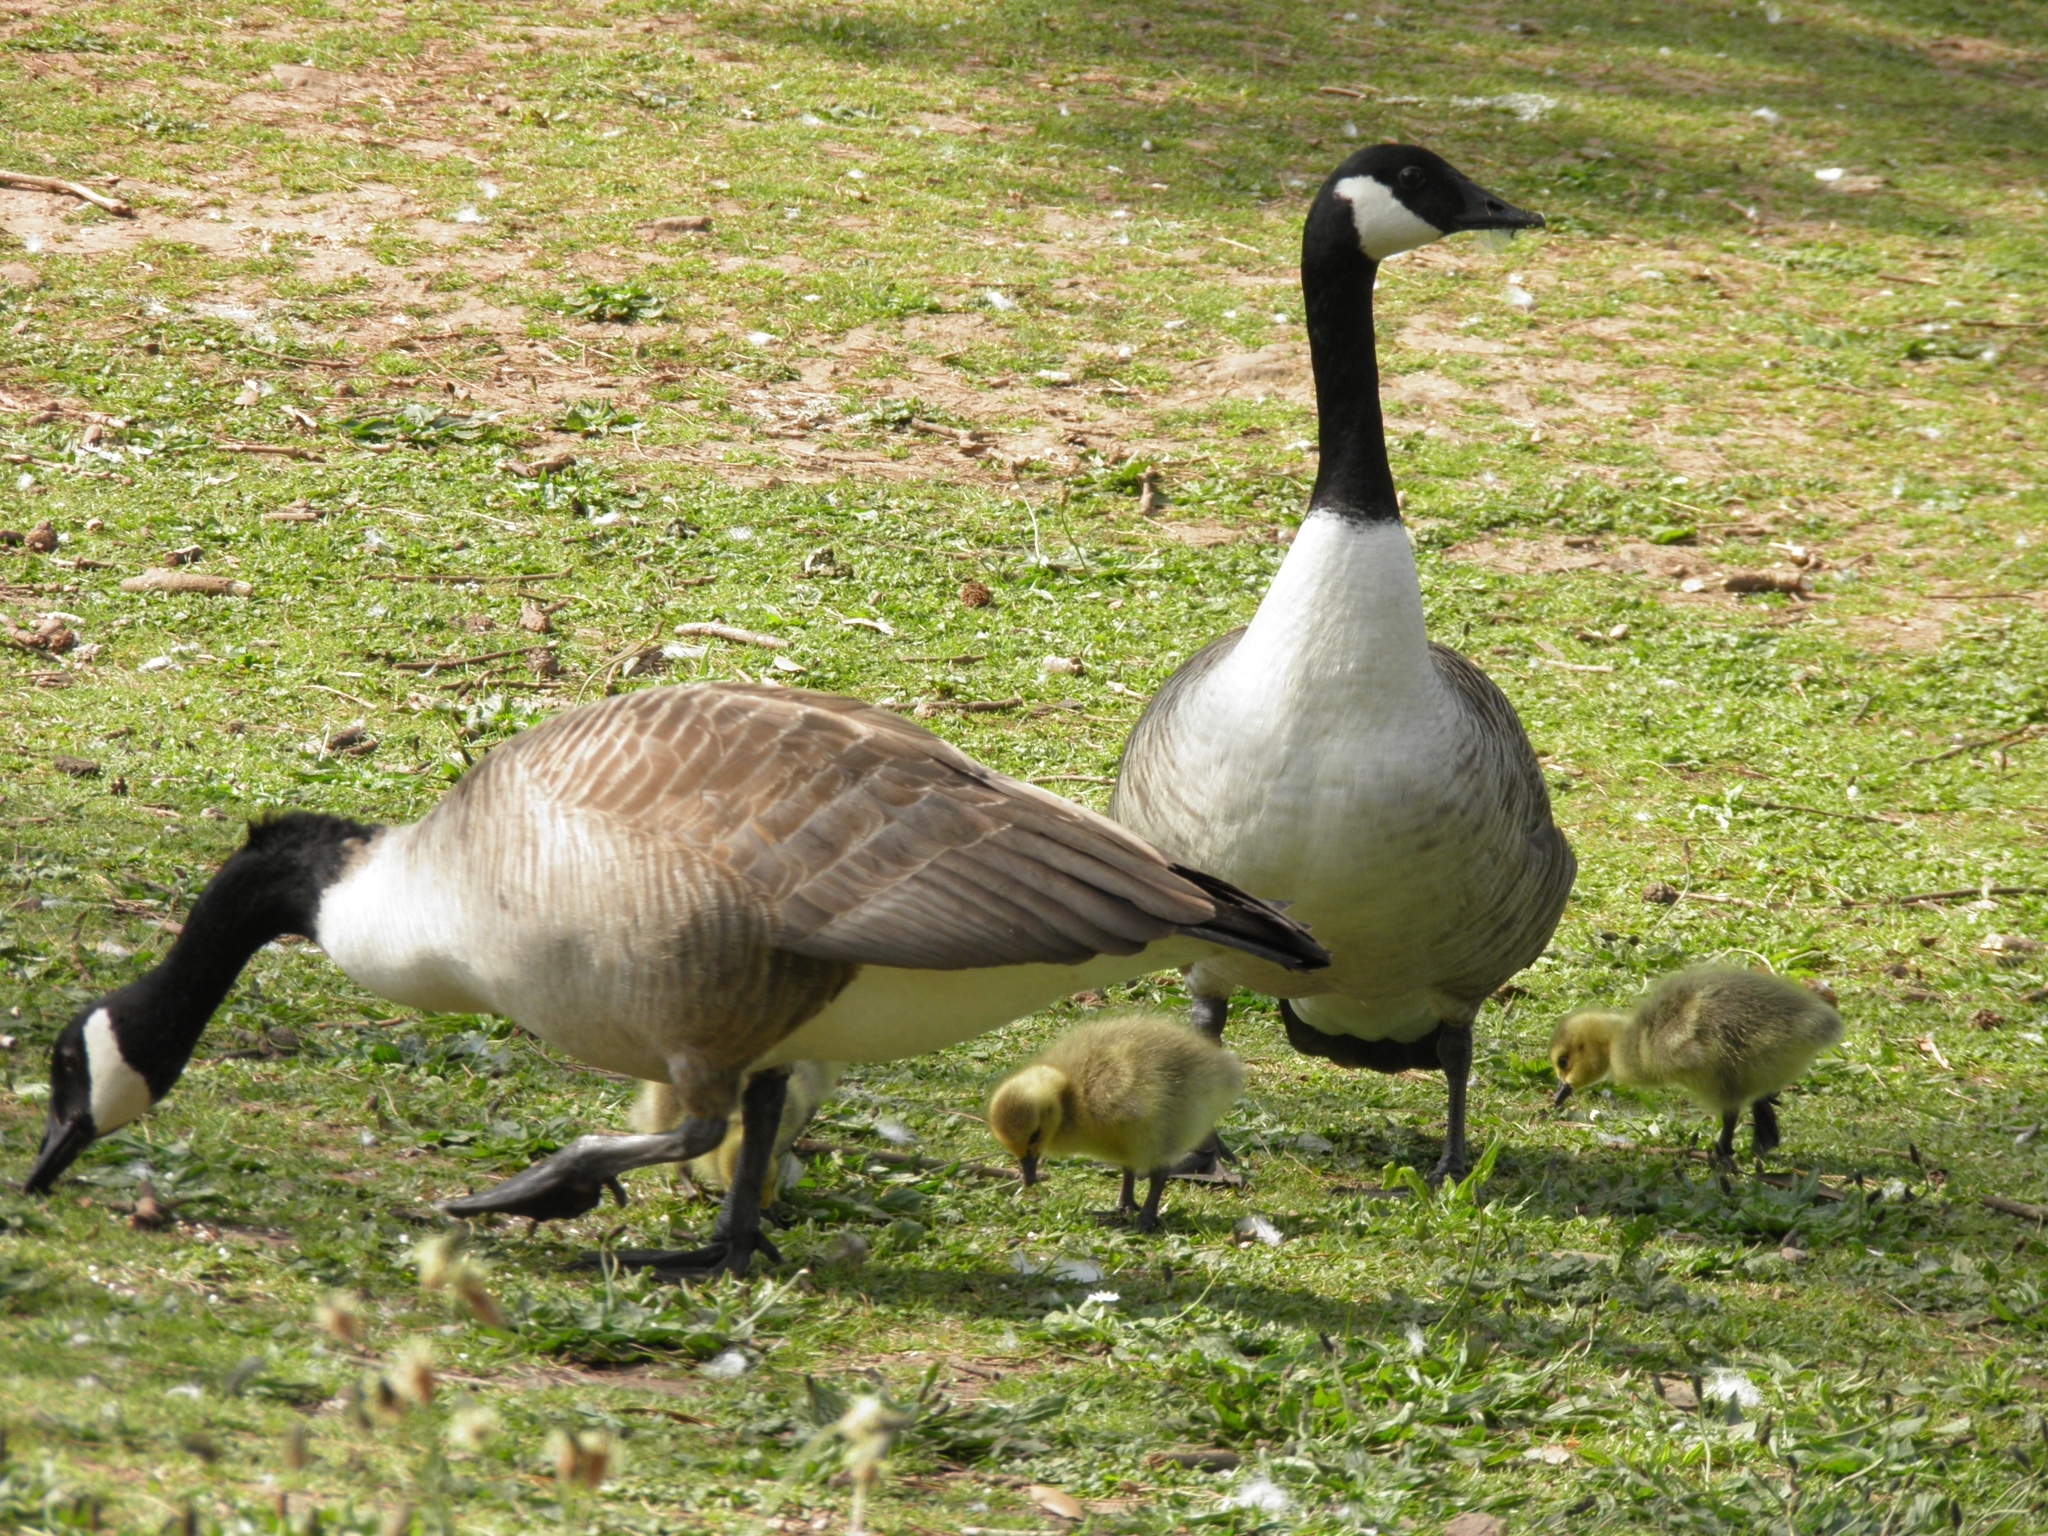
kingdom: Animalia
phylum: Chordata
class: Aves
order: Anseriformes
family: Anatidae
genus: Branta
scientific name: Branta canadensis
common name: Canada goose
